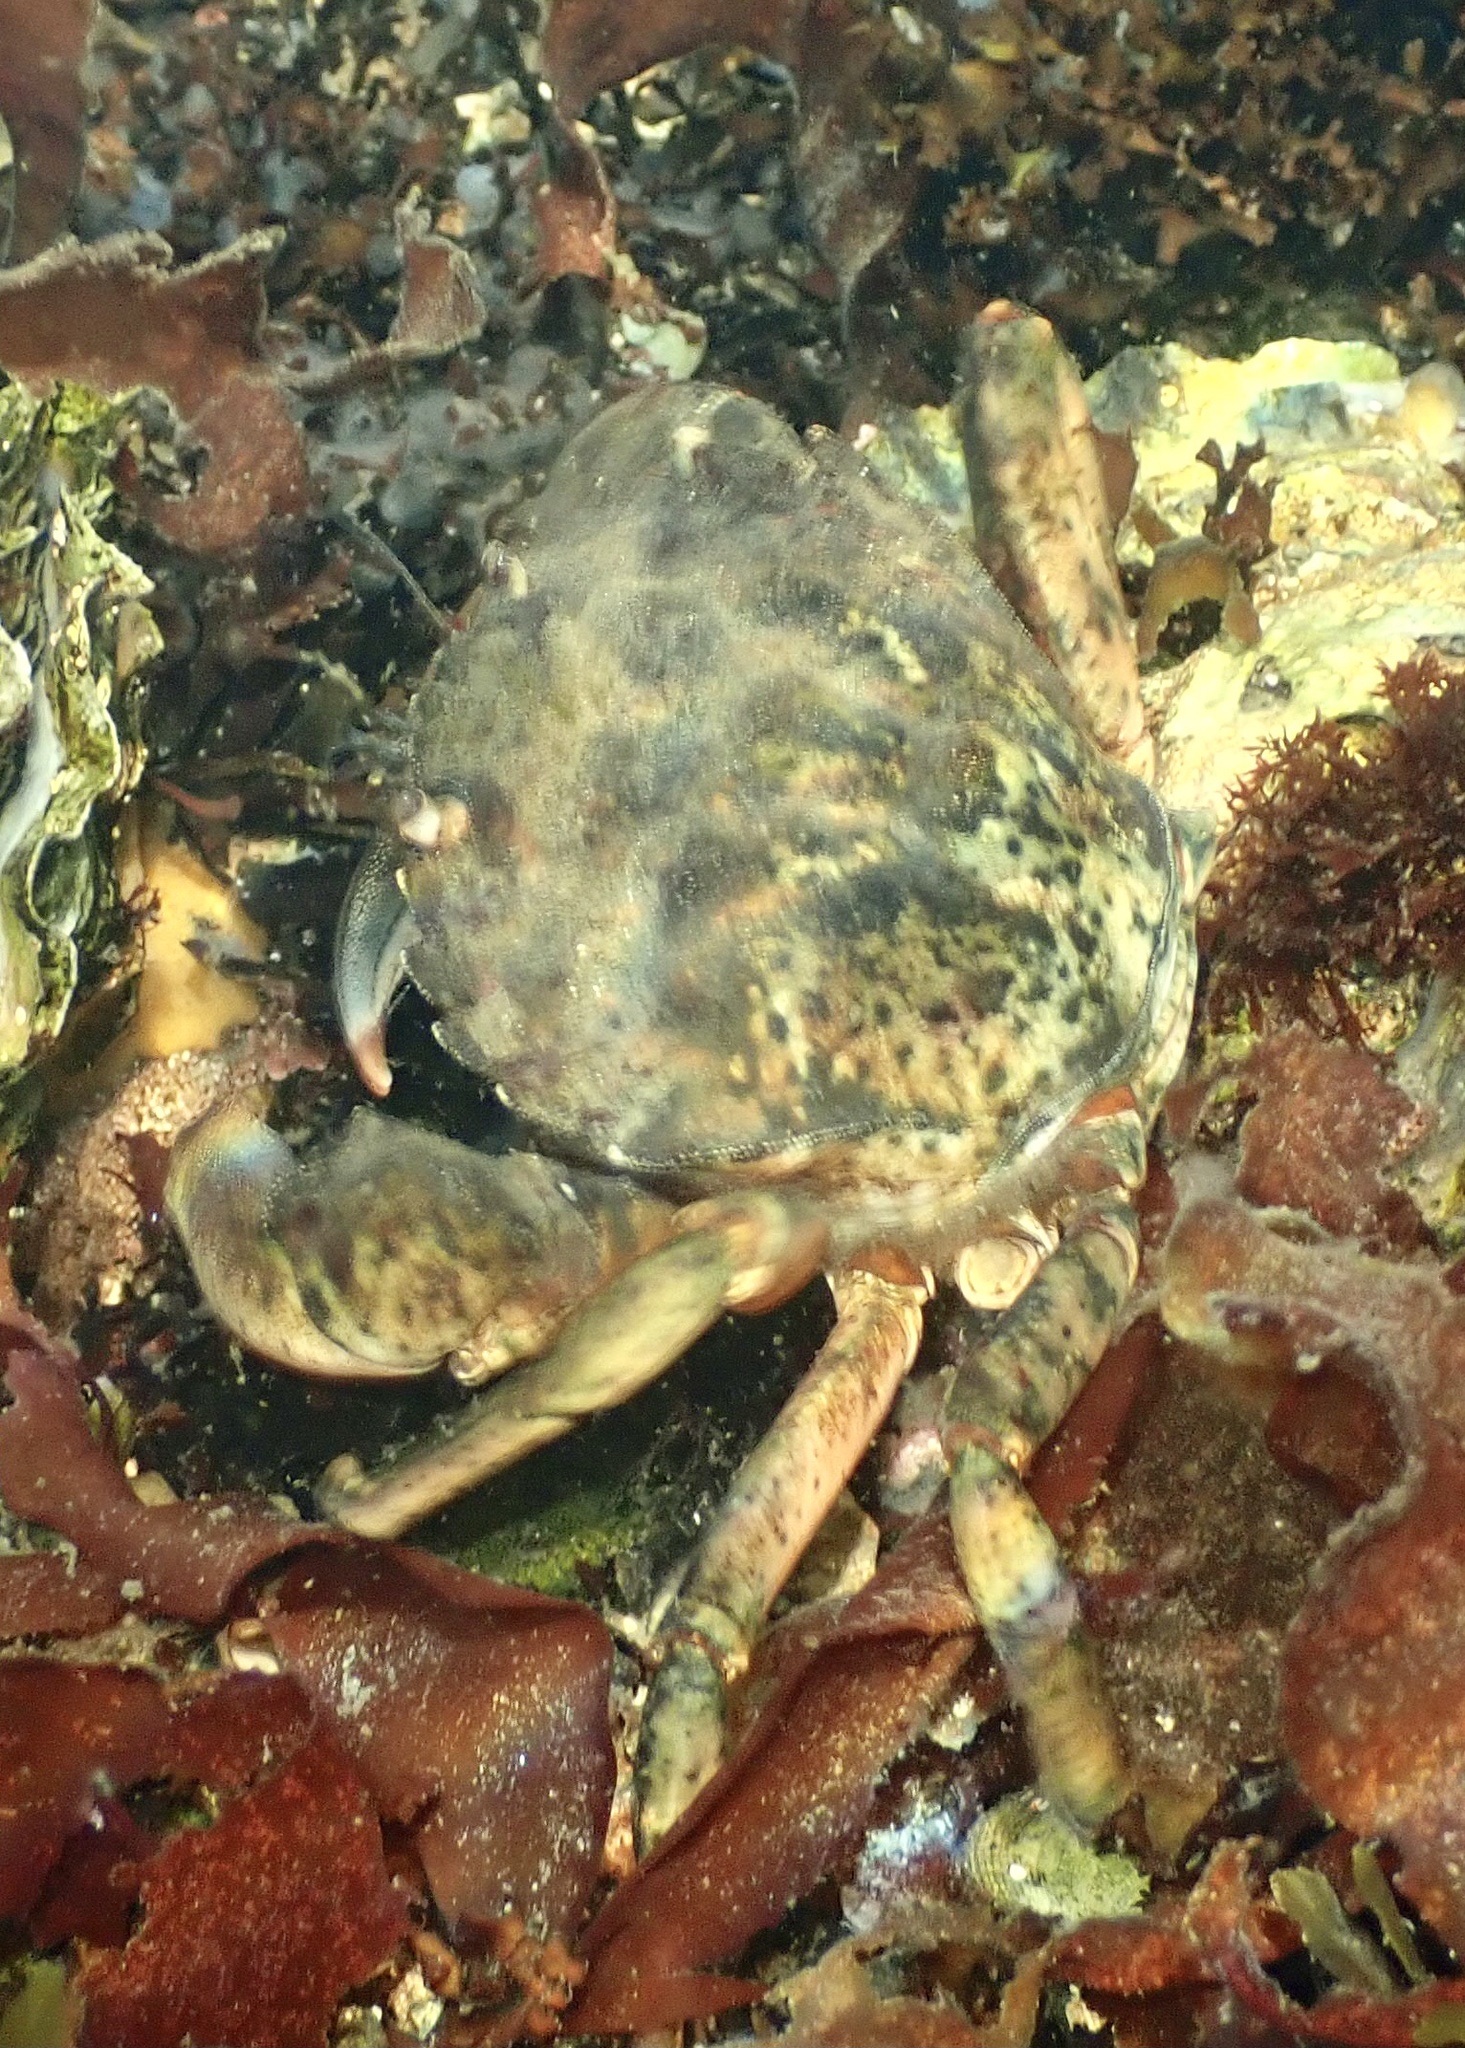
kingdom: Animalia
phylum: Arthropoda
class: Malacostraca
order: Decapoda
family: Carcinidae
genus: Carcinus
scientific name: Carcinus maenas
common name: European green crab
